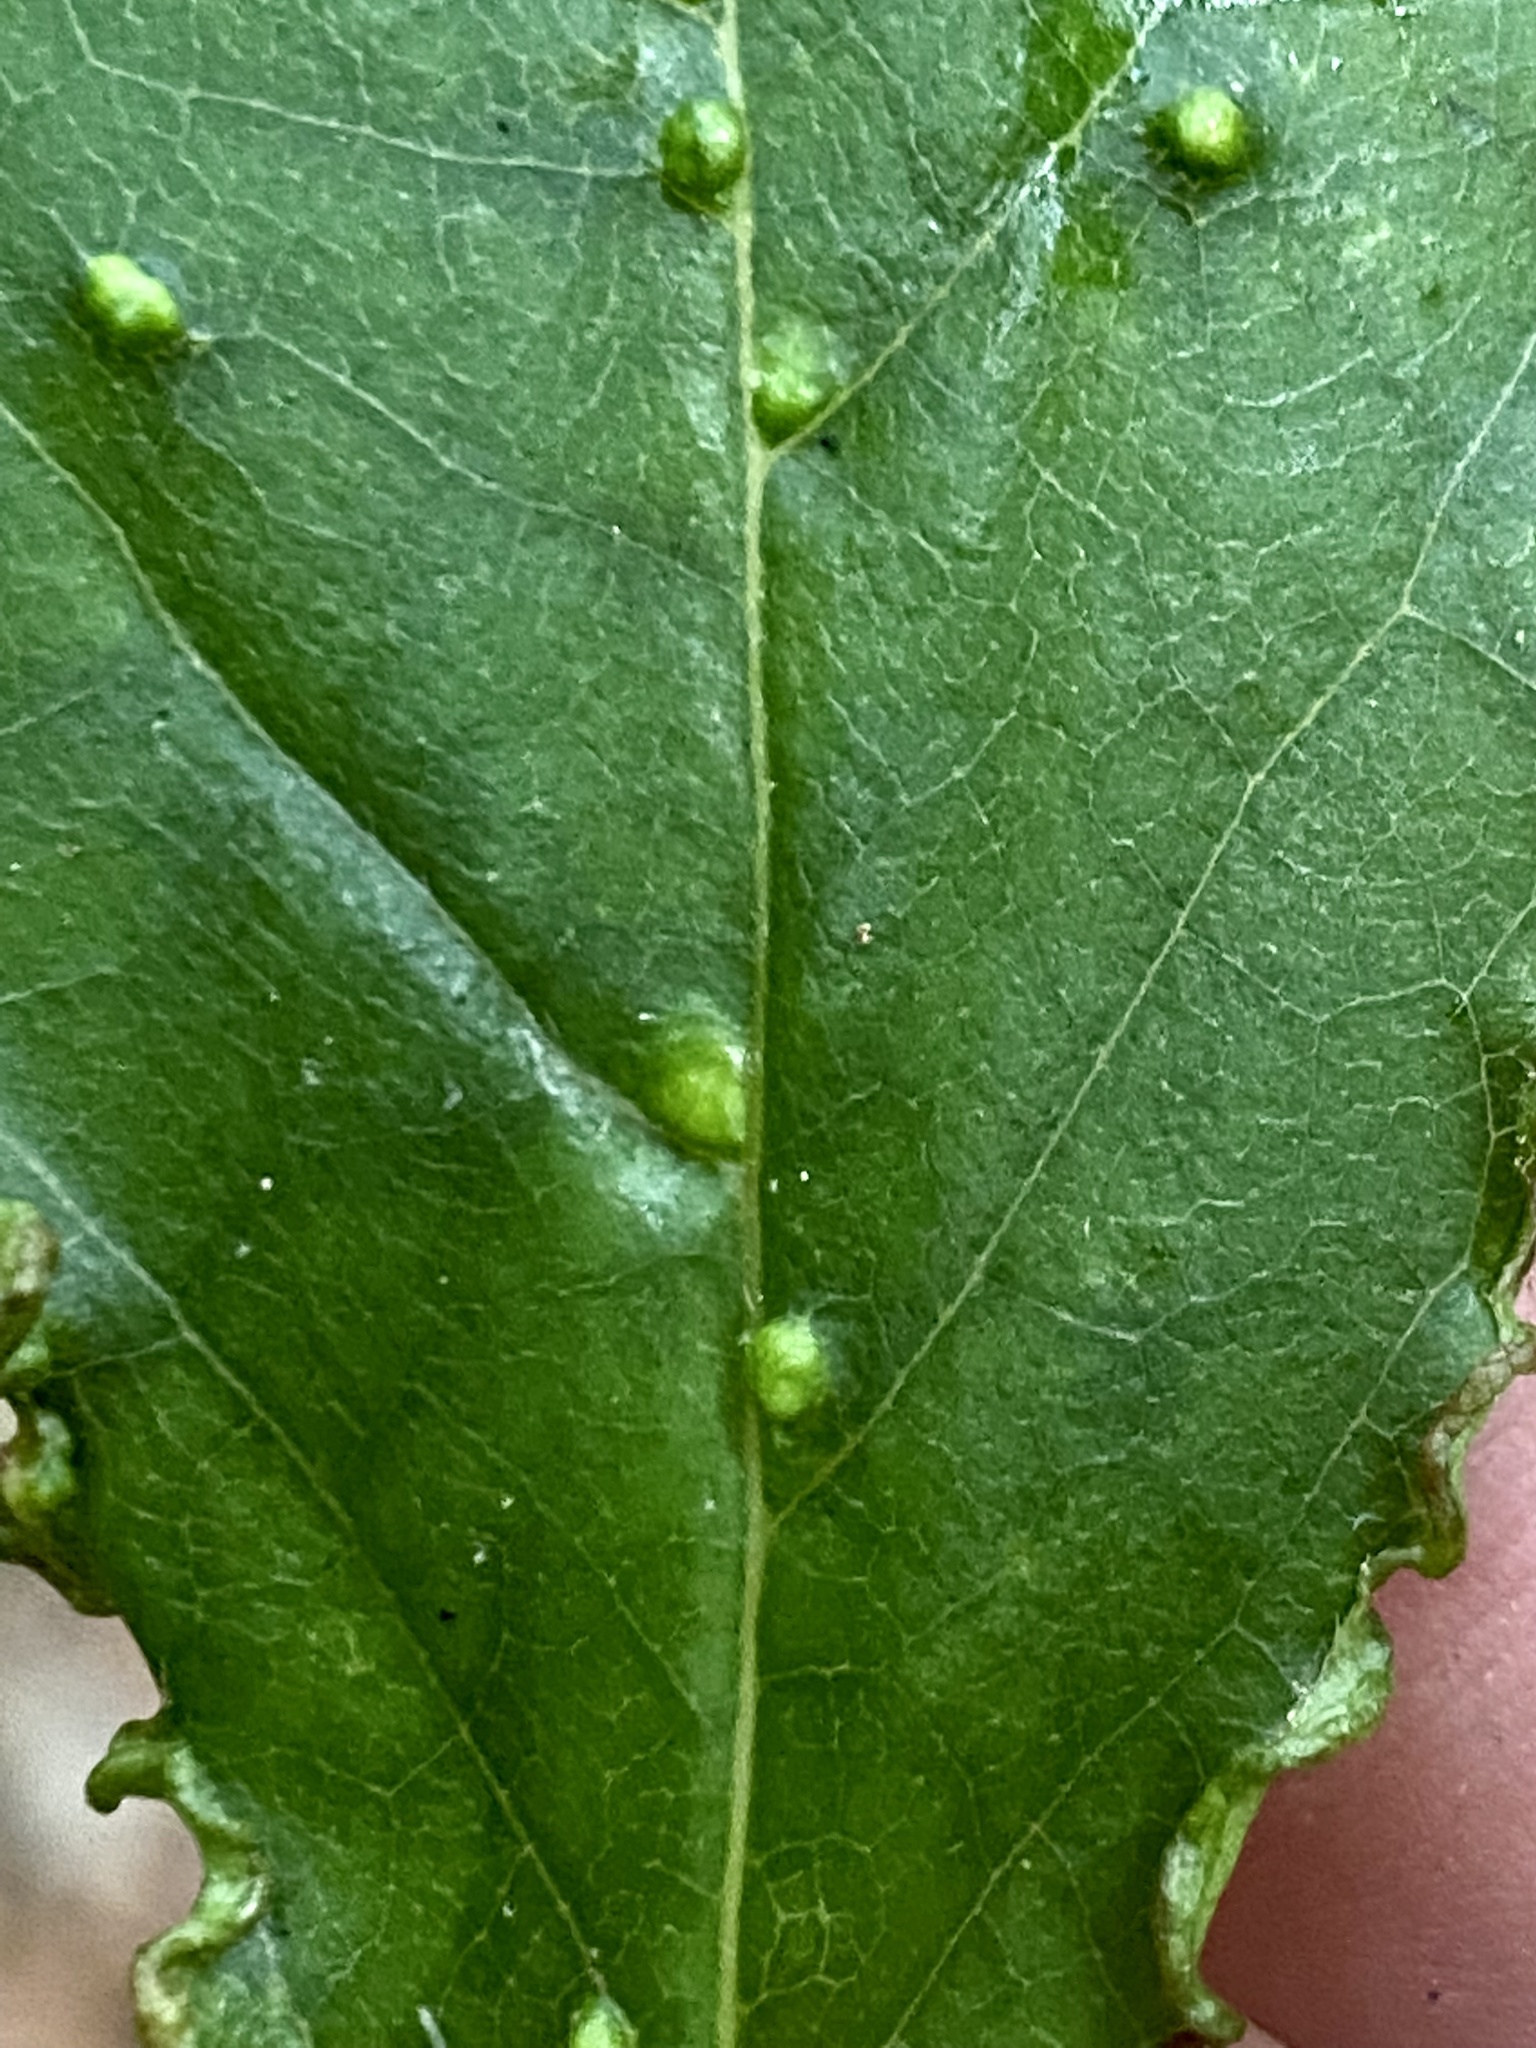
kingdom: Animalia
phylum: Arthropoda
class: Arachnida
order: Trombidiformes
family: Eriophyidae
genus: Cenalox
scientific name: Cenalox
